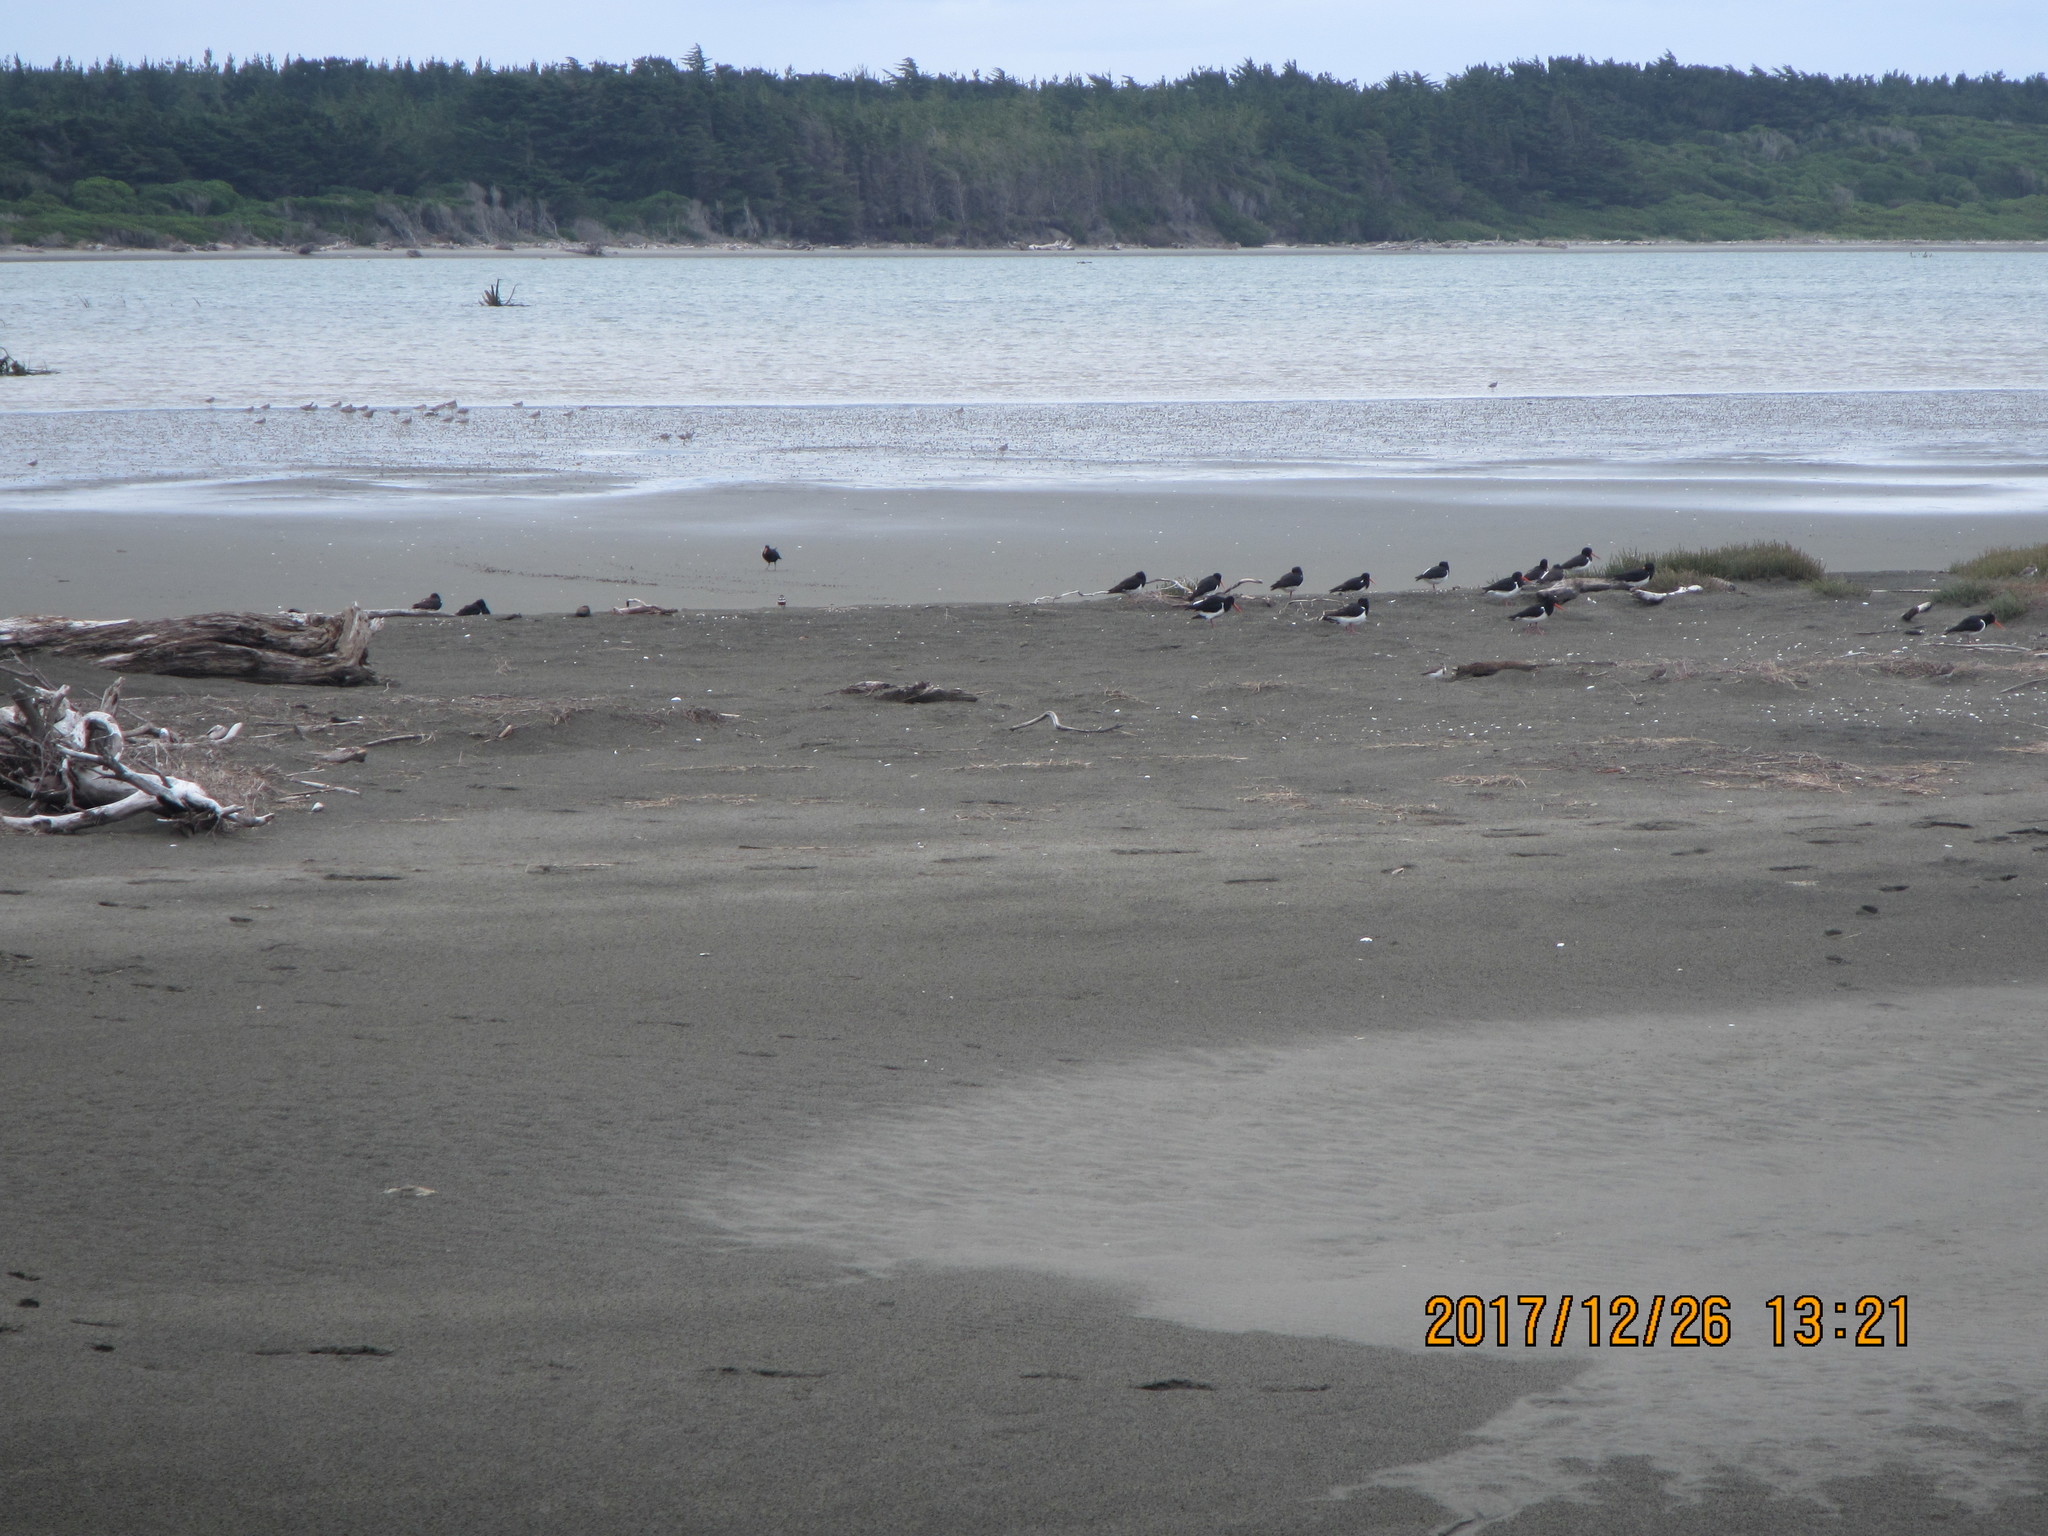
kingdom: Animalia
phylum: Chordata
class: Aves
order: Charadriiformes
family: Haematopodidae
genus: Haematopus
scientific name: Haematopus finschi
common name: South island oystercatcher
